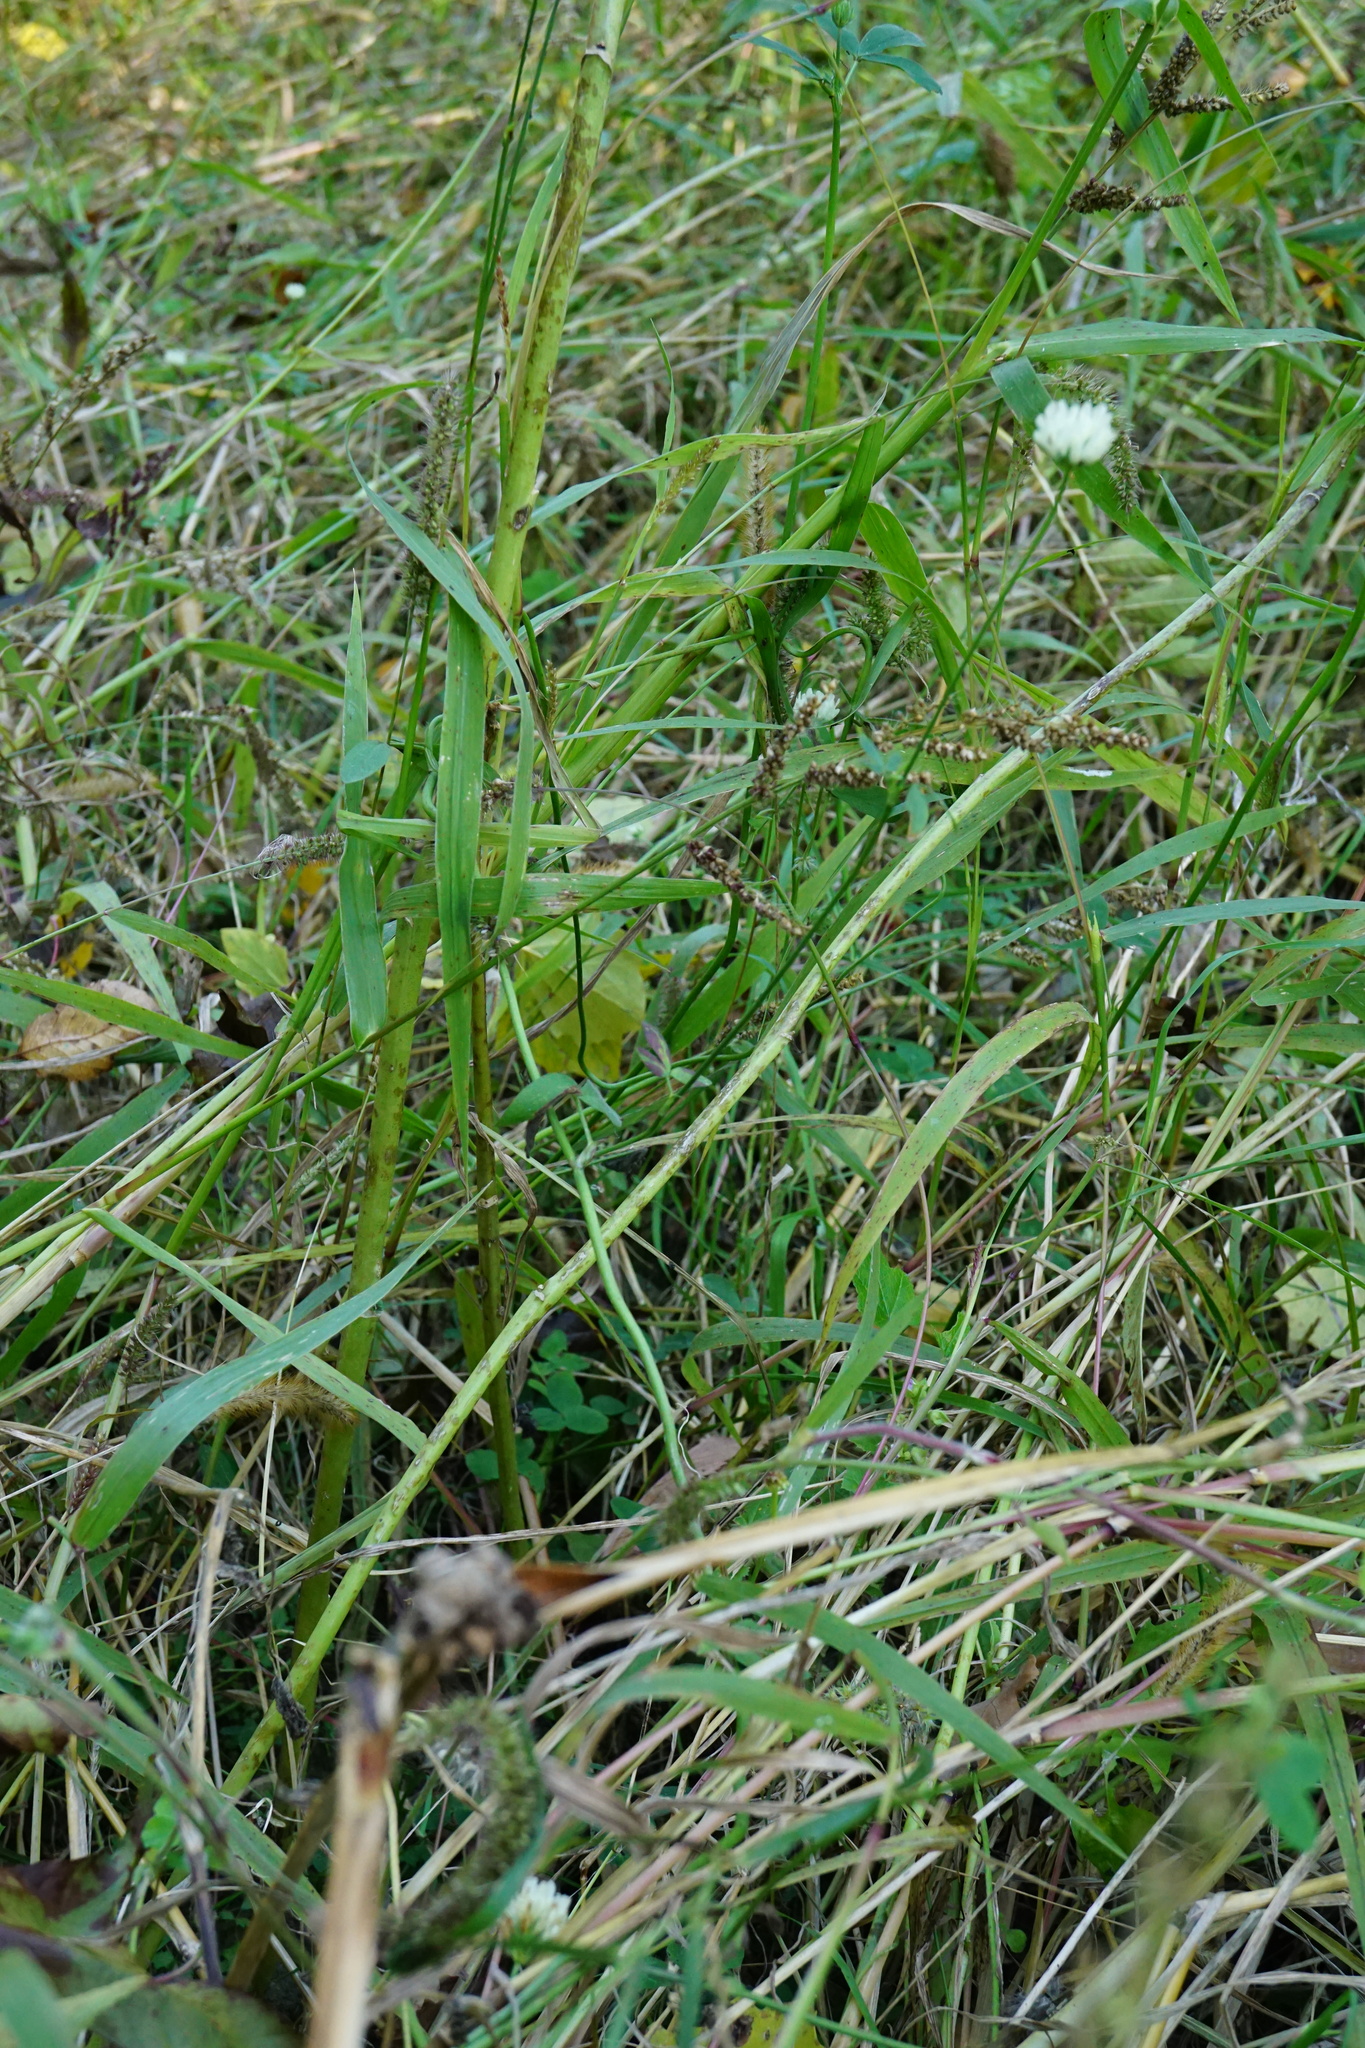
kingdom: Plantae
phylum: Tracheophyta
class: Magnoliopsida
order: Fabales
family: Fabaceae
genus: Trifolium
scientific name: Trifolium alexandrinum
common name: Egyptian clover
